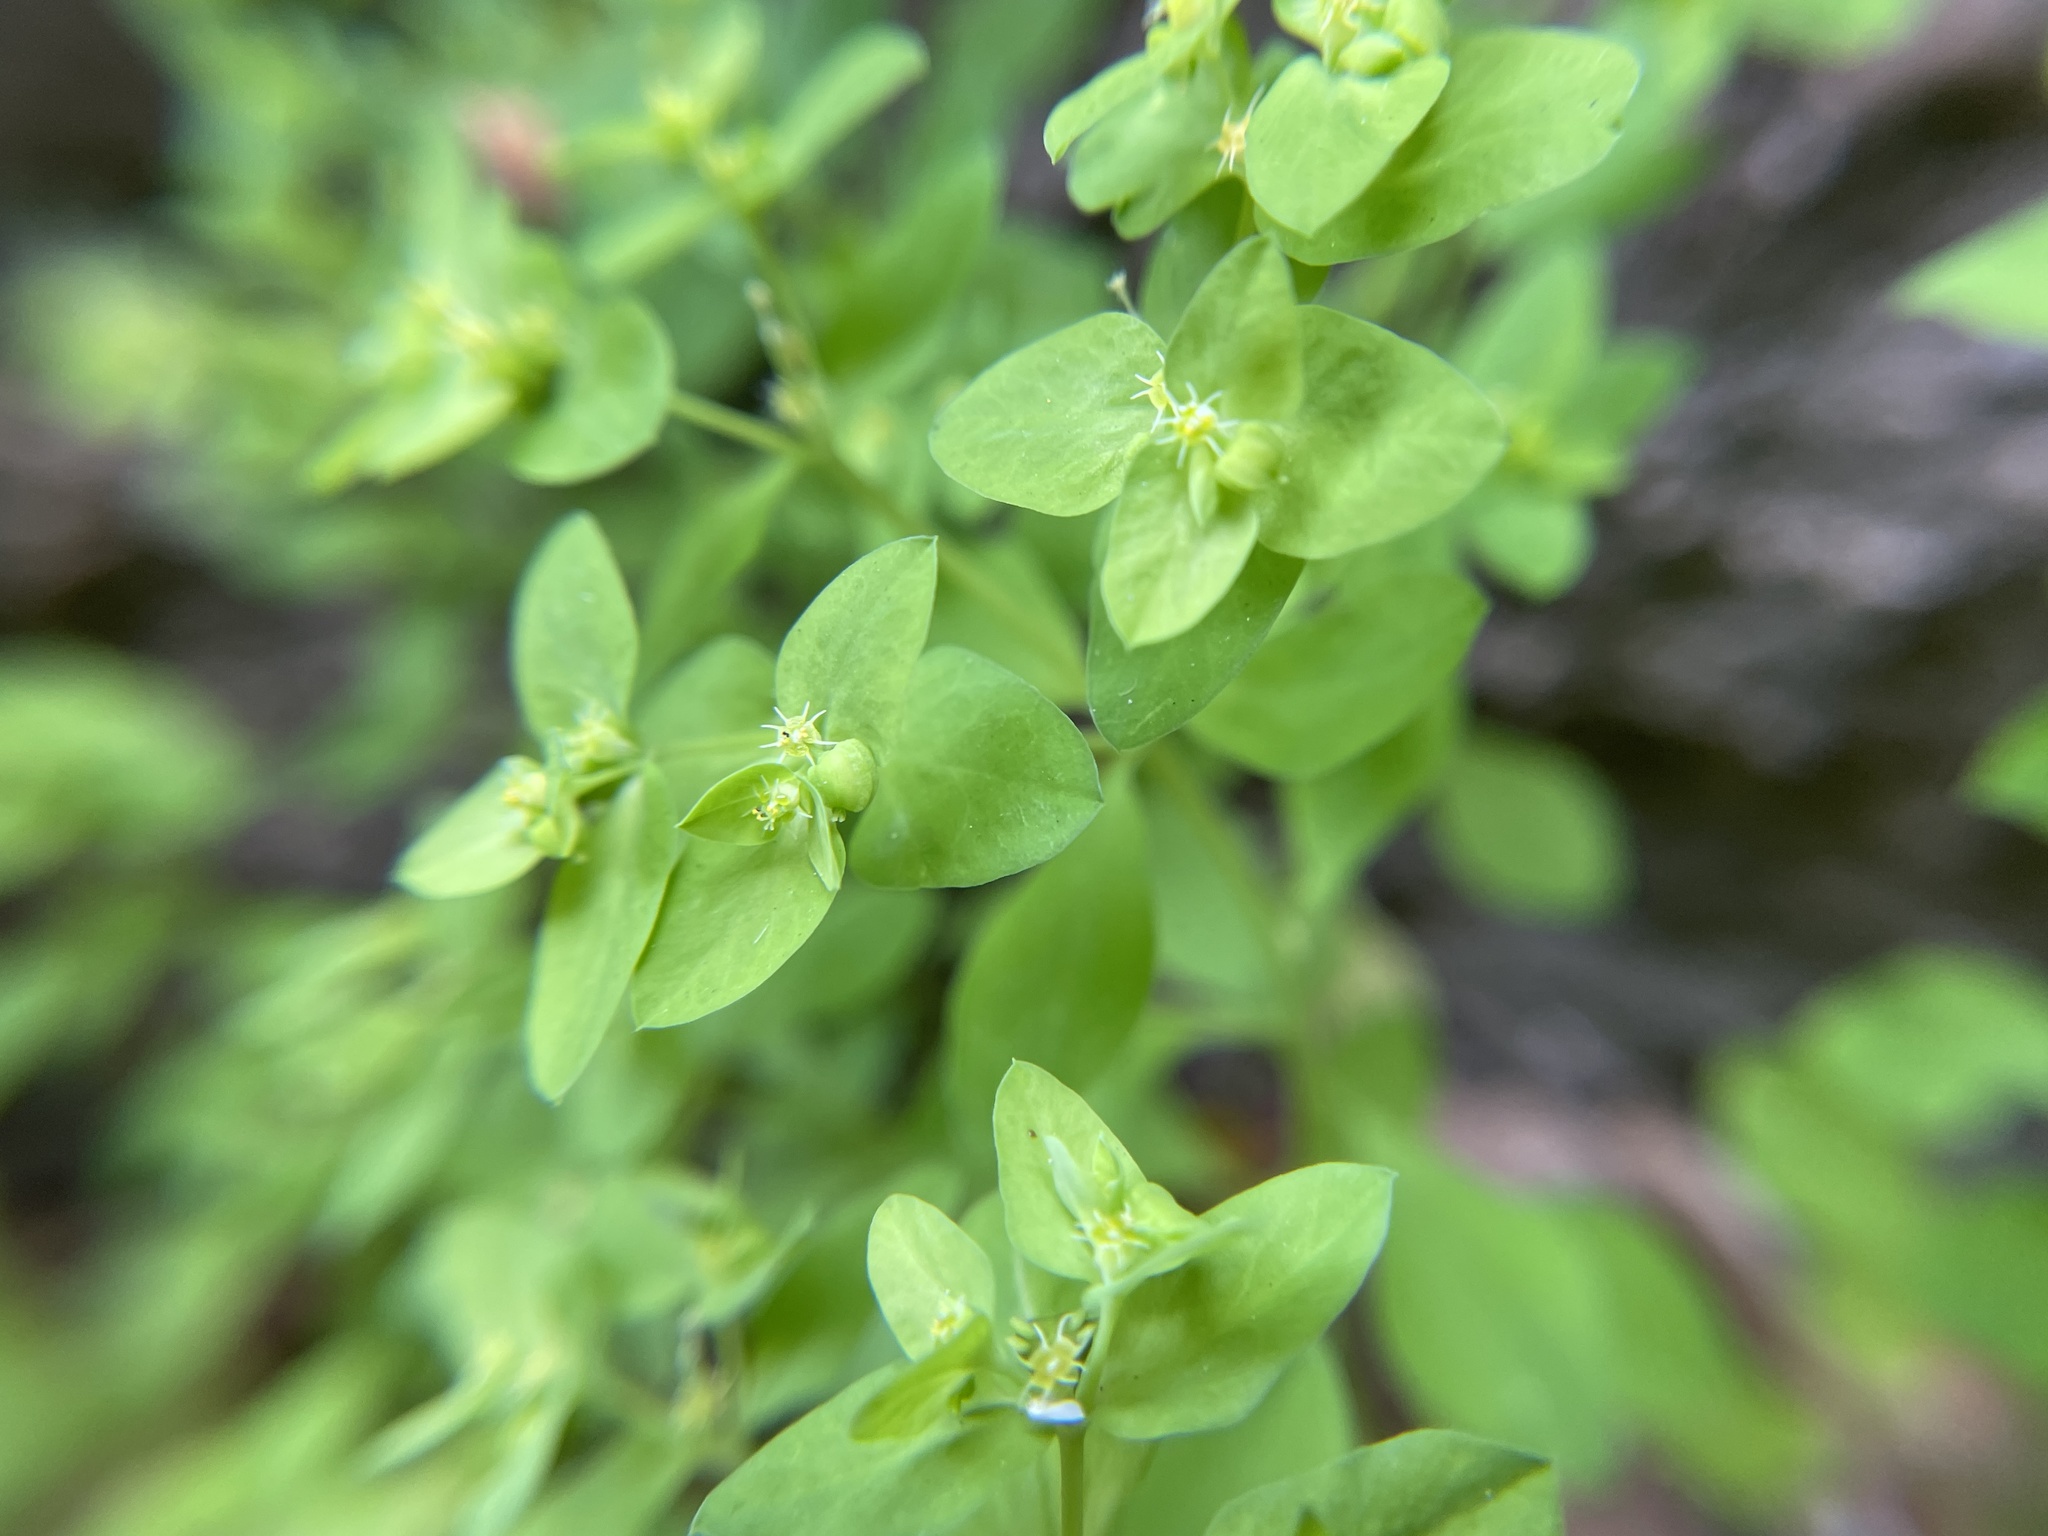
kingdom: Plantae
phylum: Tracheophyta
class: Magnoliopsida
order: Malpighiales
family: Euphorbiaceae
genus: Euphorbia
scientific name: Euphorbia peplus
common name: Petty spurge
